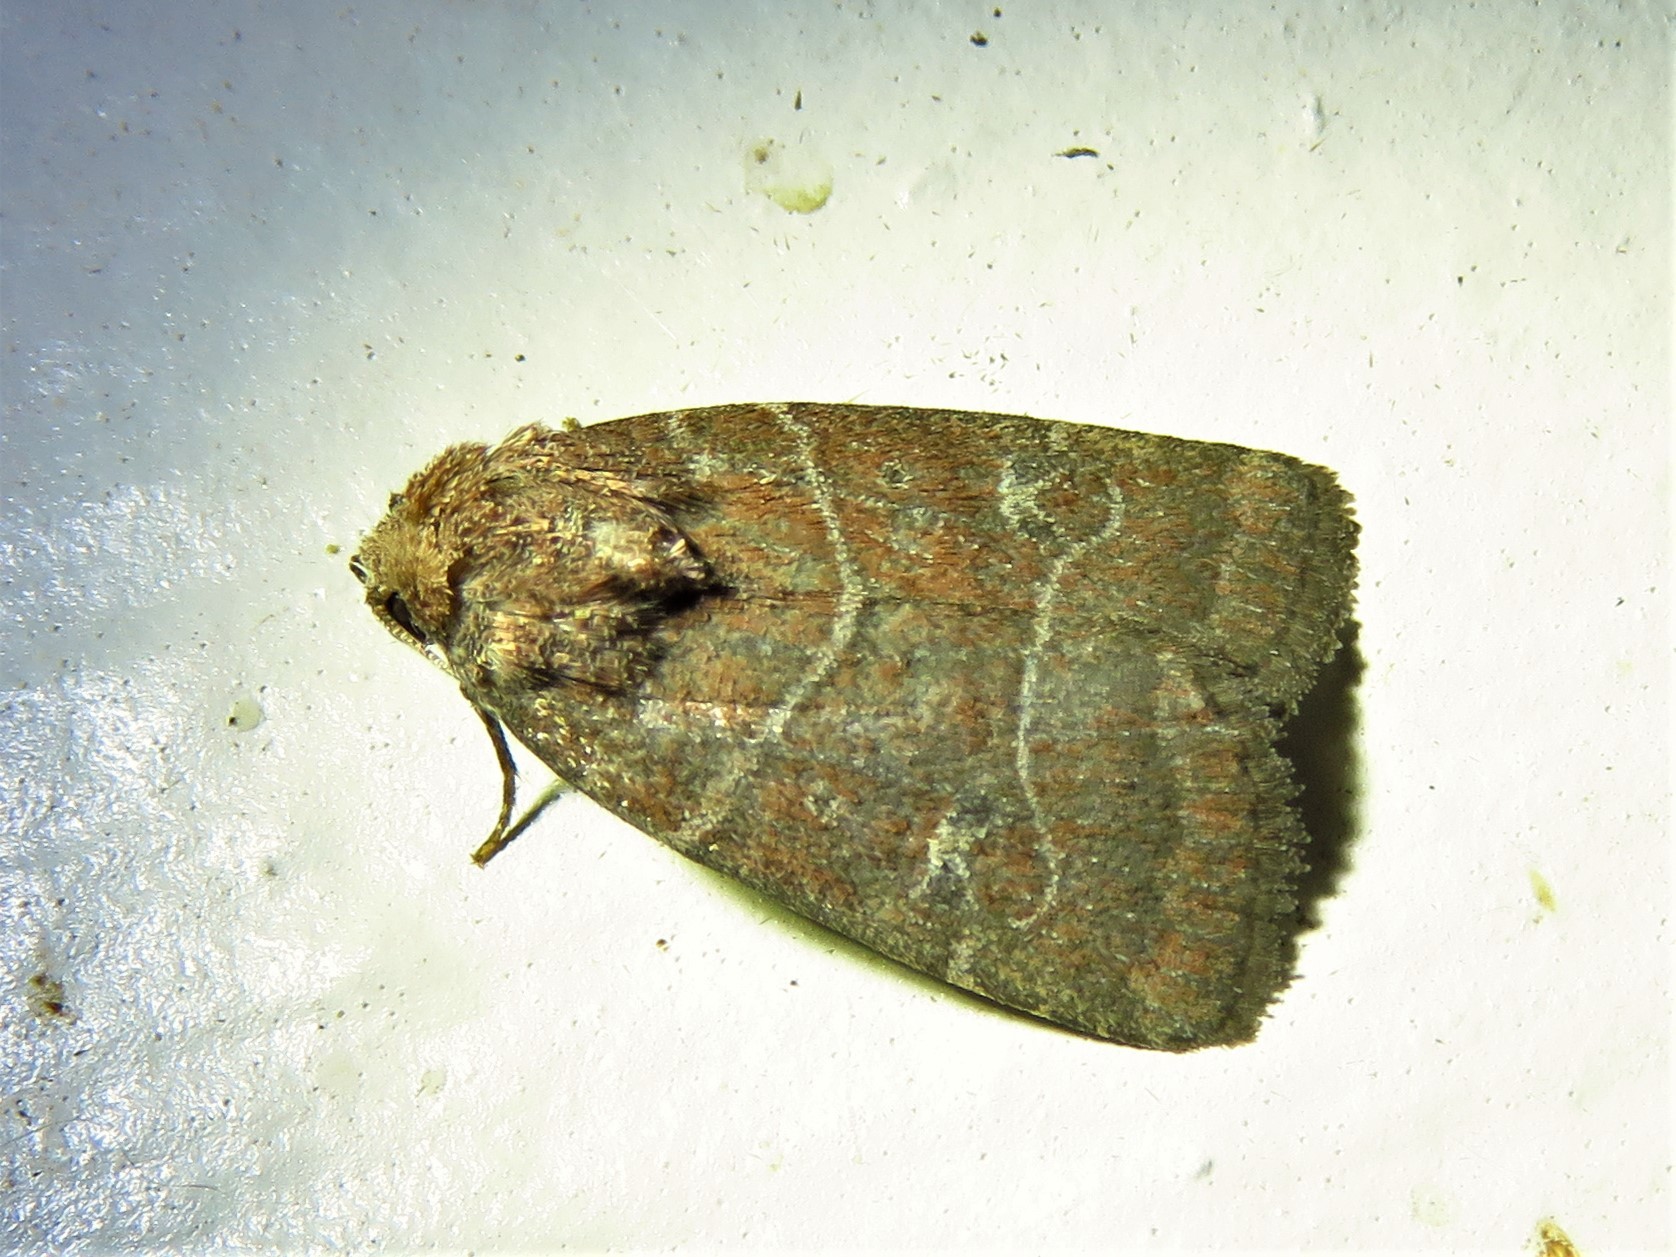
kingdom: Animalia
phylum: Arthropoda
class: Insecta
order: Lepidoptera
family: Noctuidae
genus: Elaphria
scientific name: Elaphria grata
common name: Grateful midget moth
